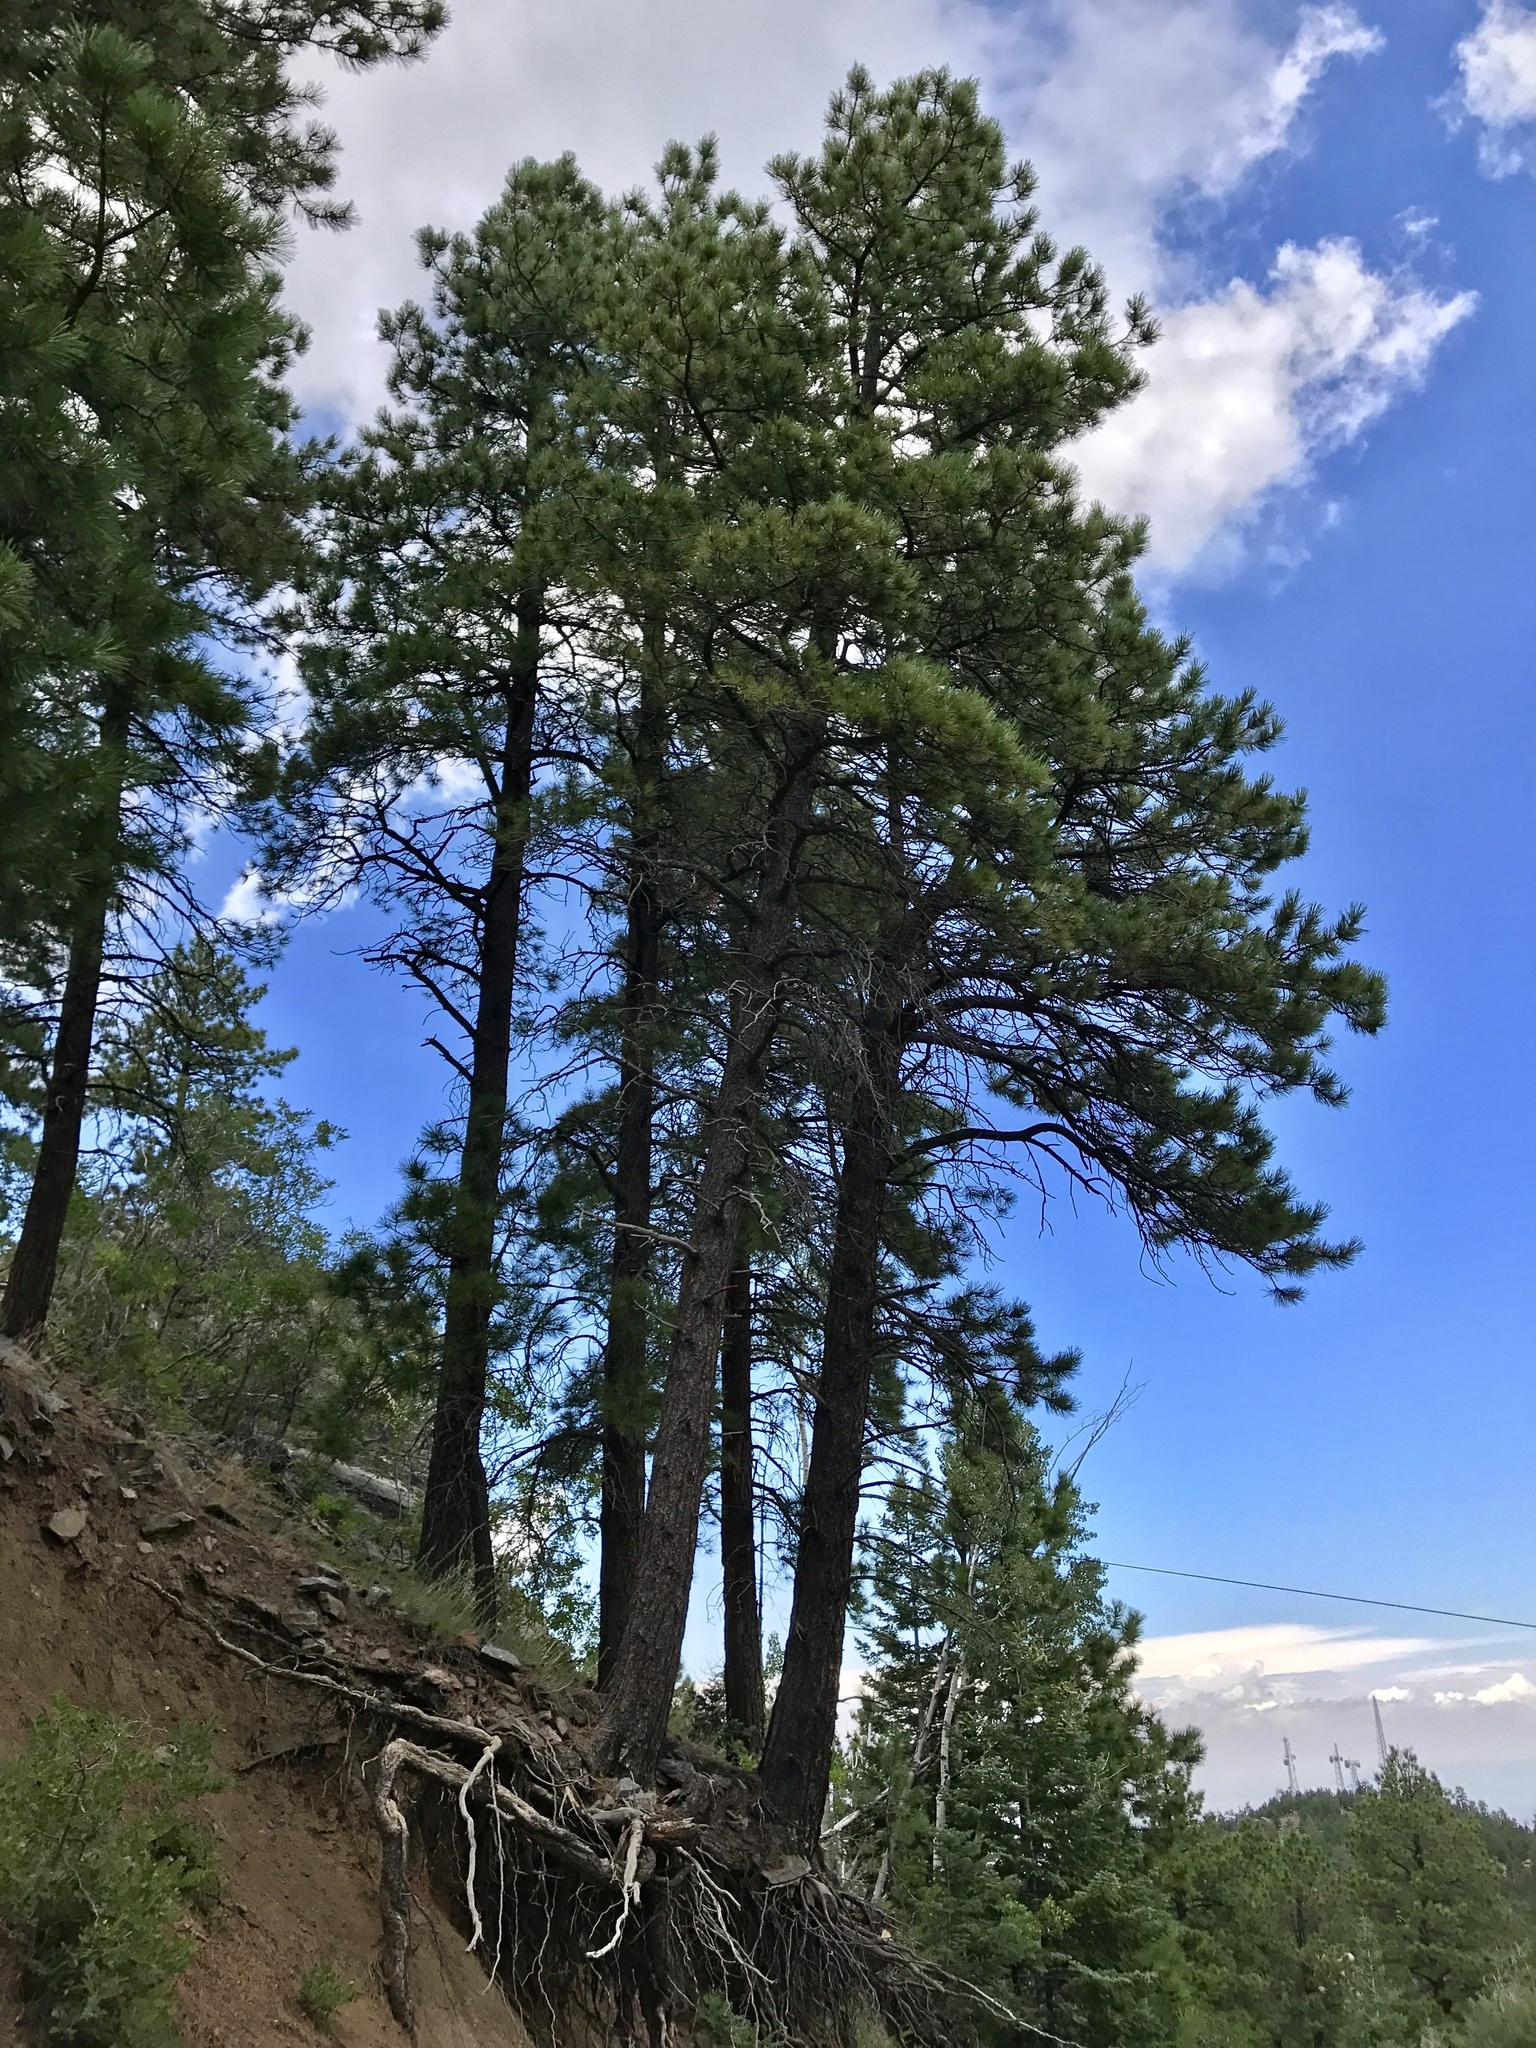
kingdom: Plantae
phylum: Tracheophyta
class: Pinopsida
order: Pinales
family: Pinaceae
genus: Pinus
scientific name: Pinus ponderosa
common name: Western yellow-pine
